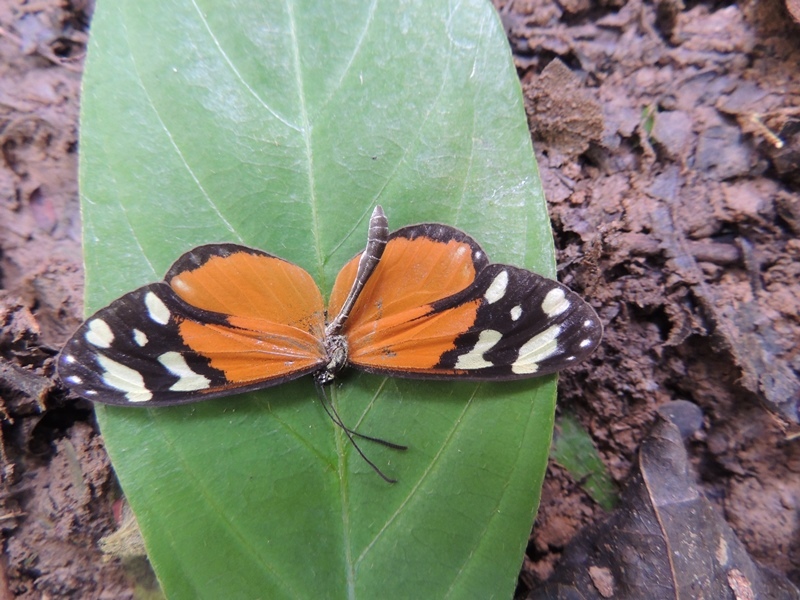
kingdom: Animalia
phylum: Arthropoda
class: Insecta
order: Lepidoptera
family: Nymphalidae
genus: Napeogenes
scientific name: Napeogenes tolosa
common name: Tollhouse ticlear
